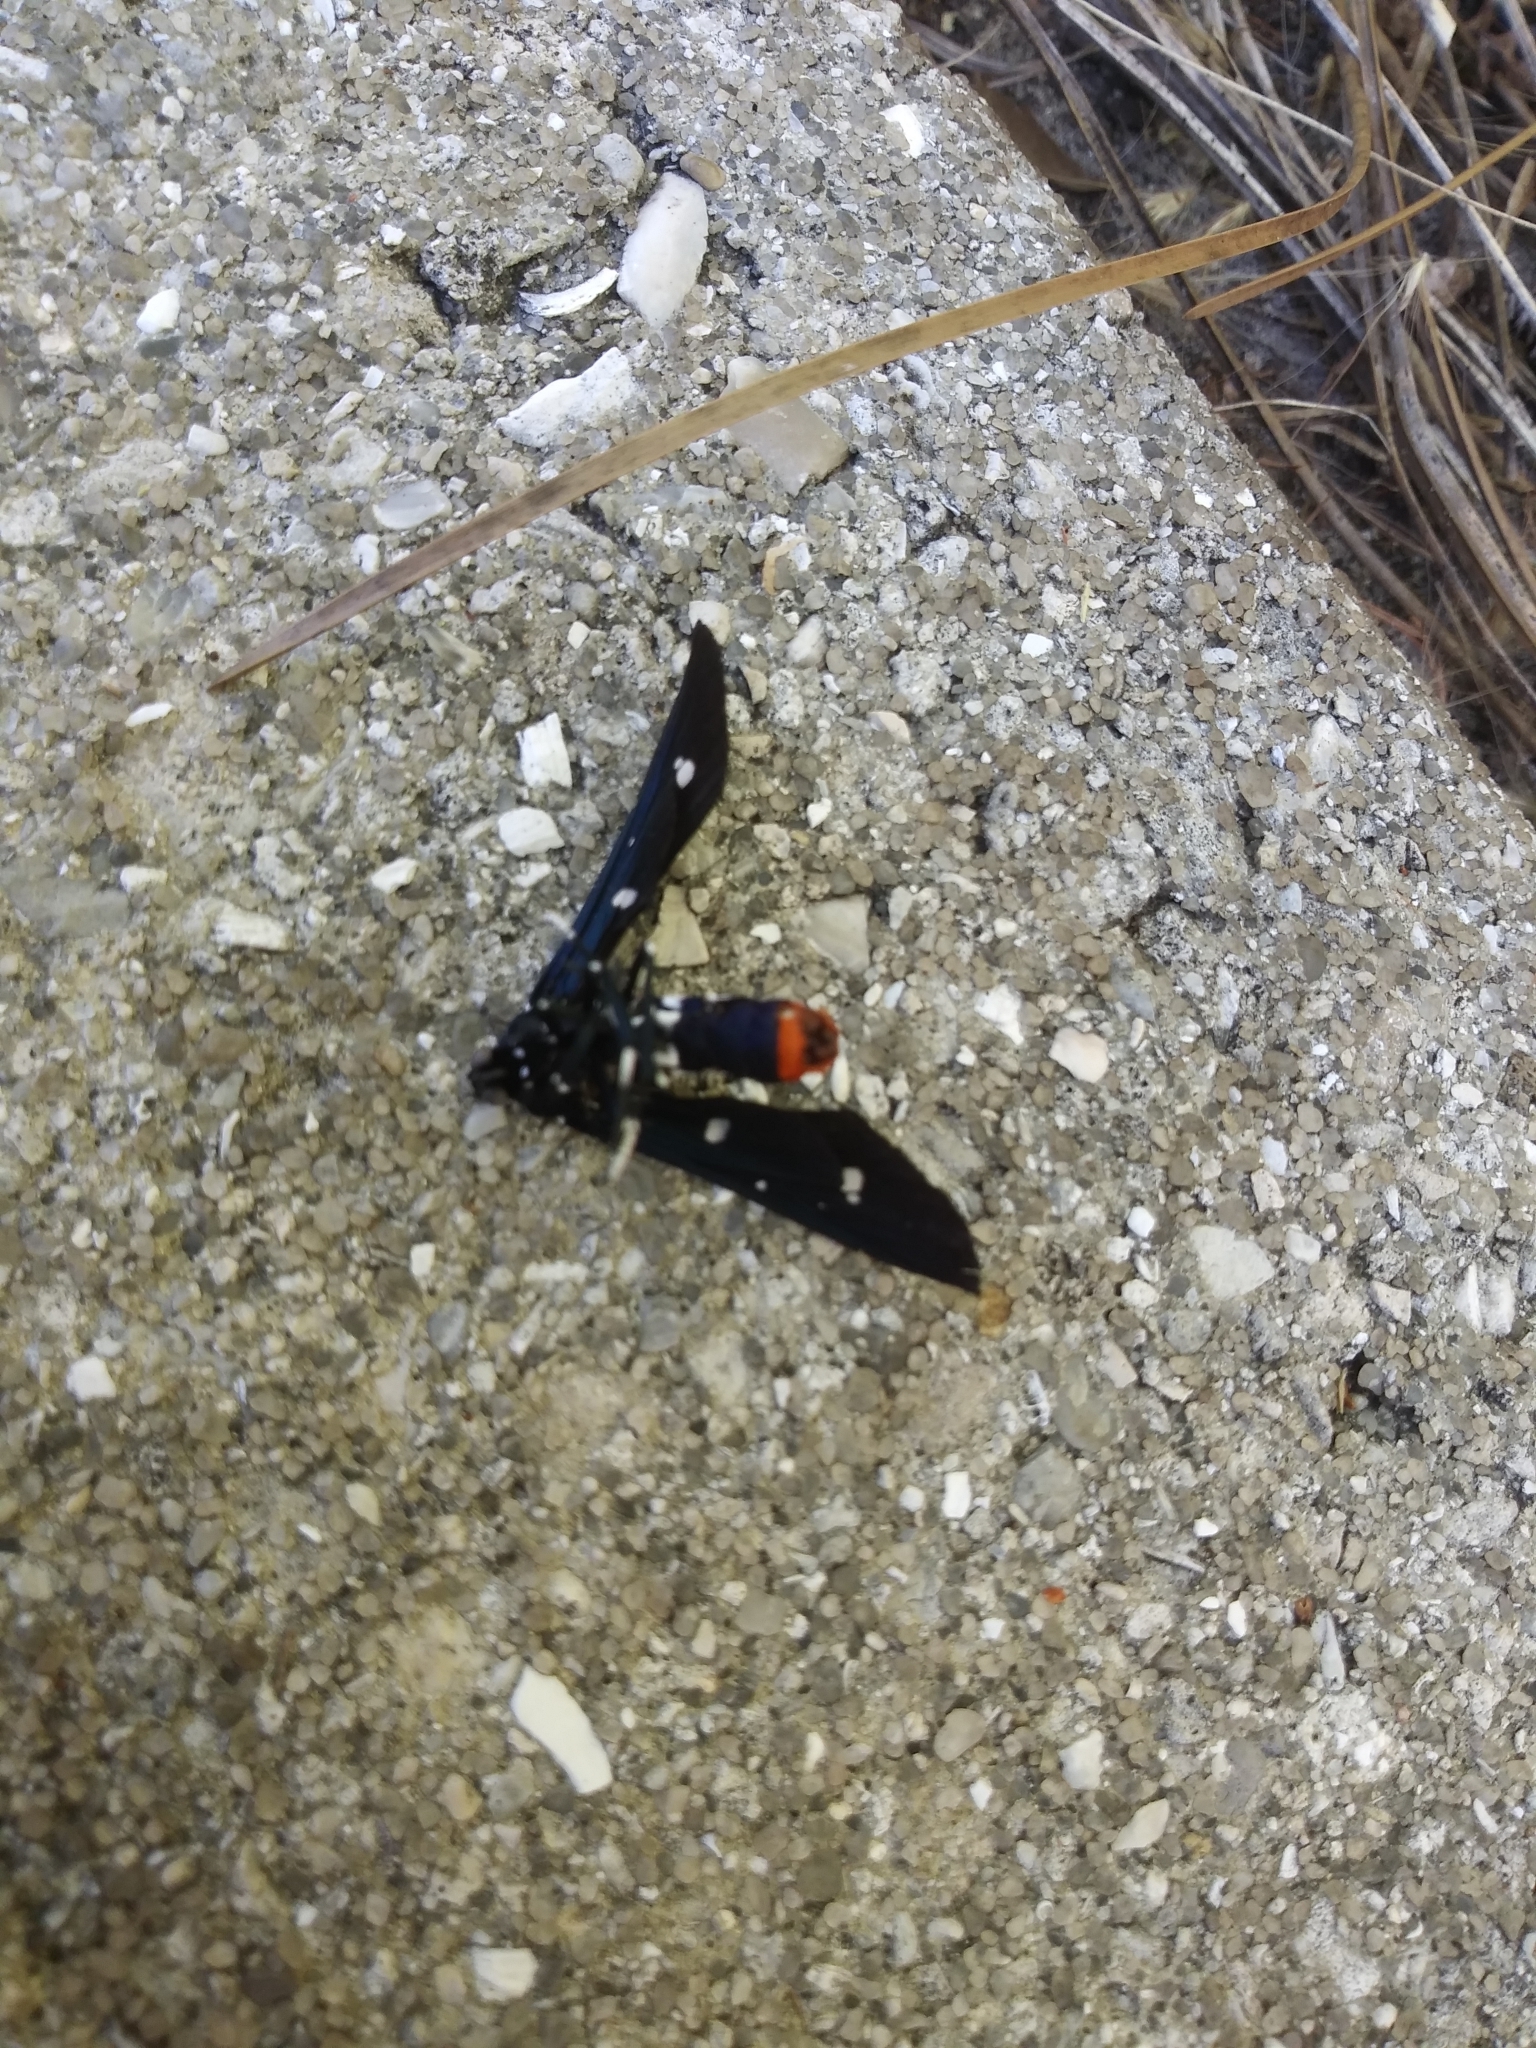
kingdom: Animalia
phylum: Arthropoda
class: Insecta
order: Lepidoptera
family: Erebidae
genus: Syntomeida
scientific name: Syntomeida epilais
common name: Polka-dot wasp moth
